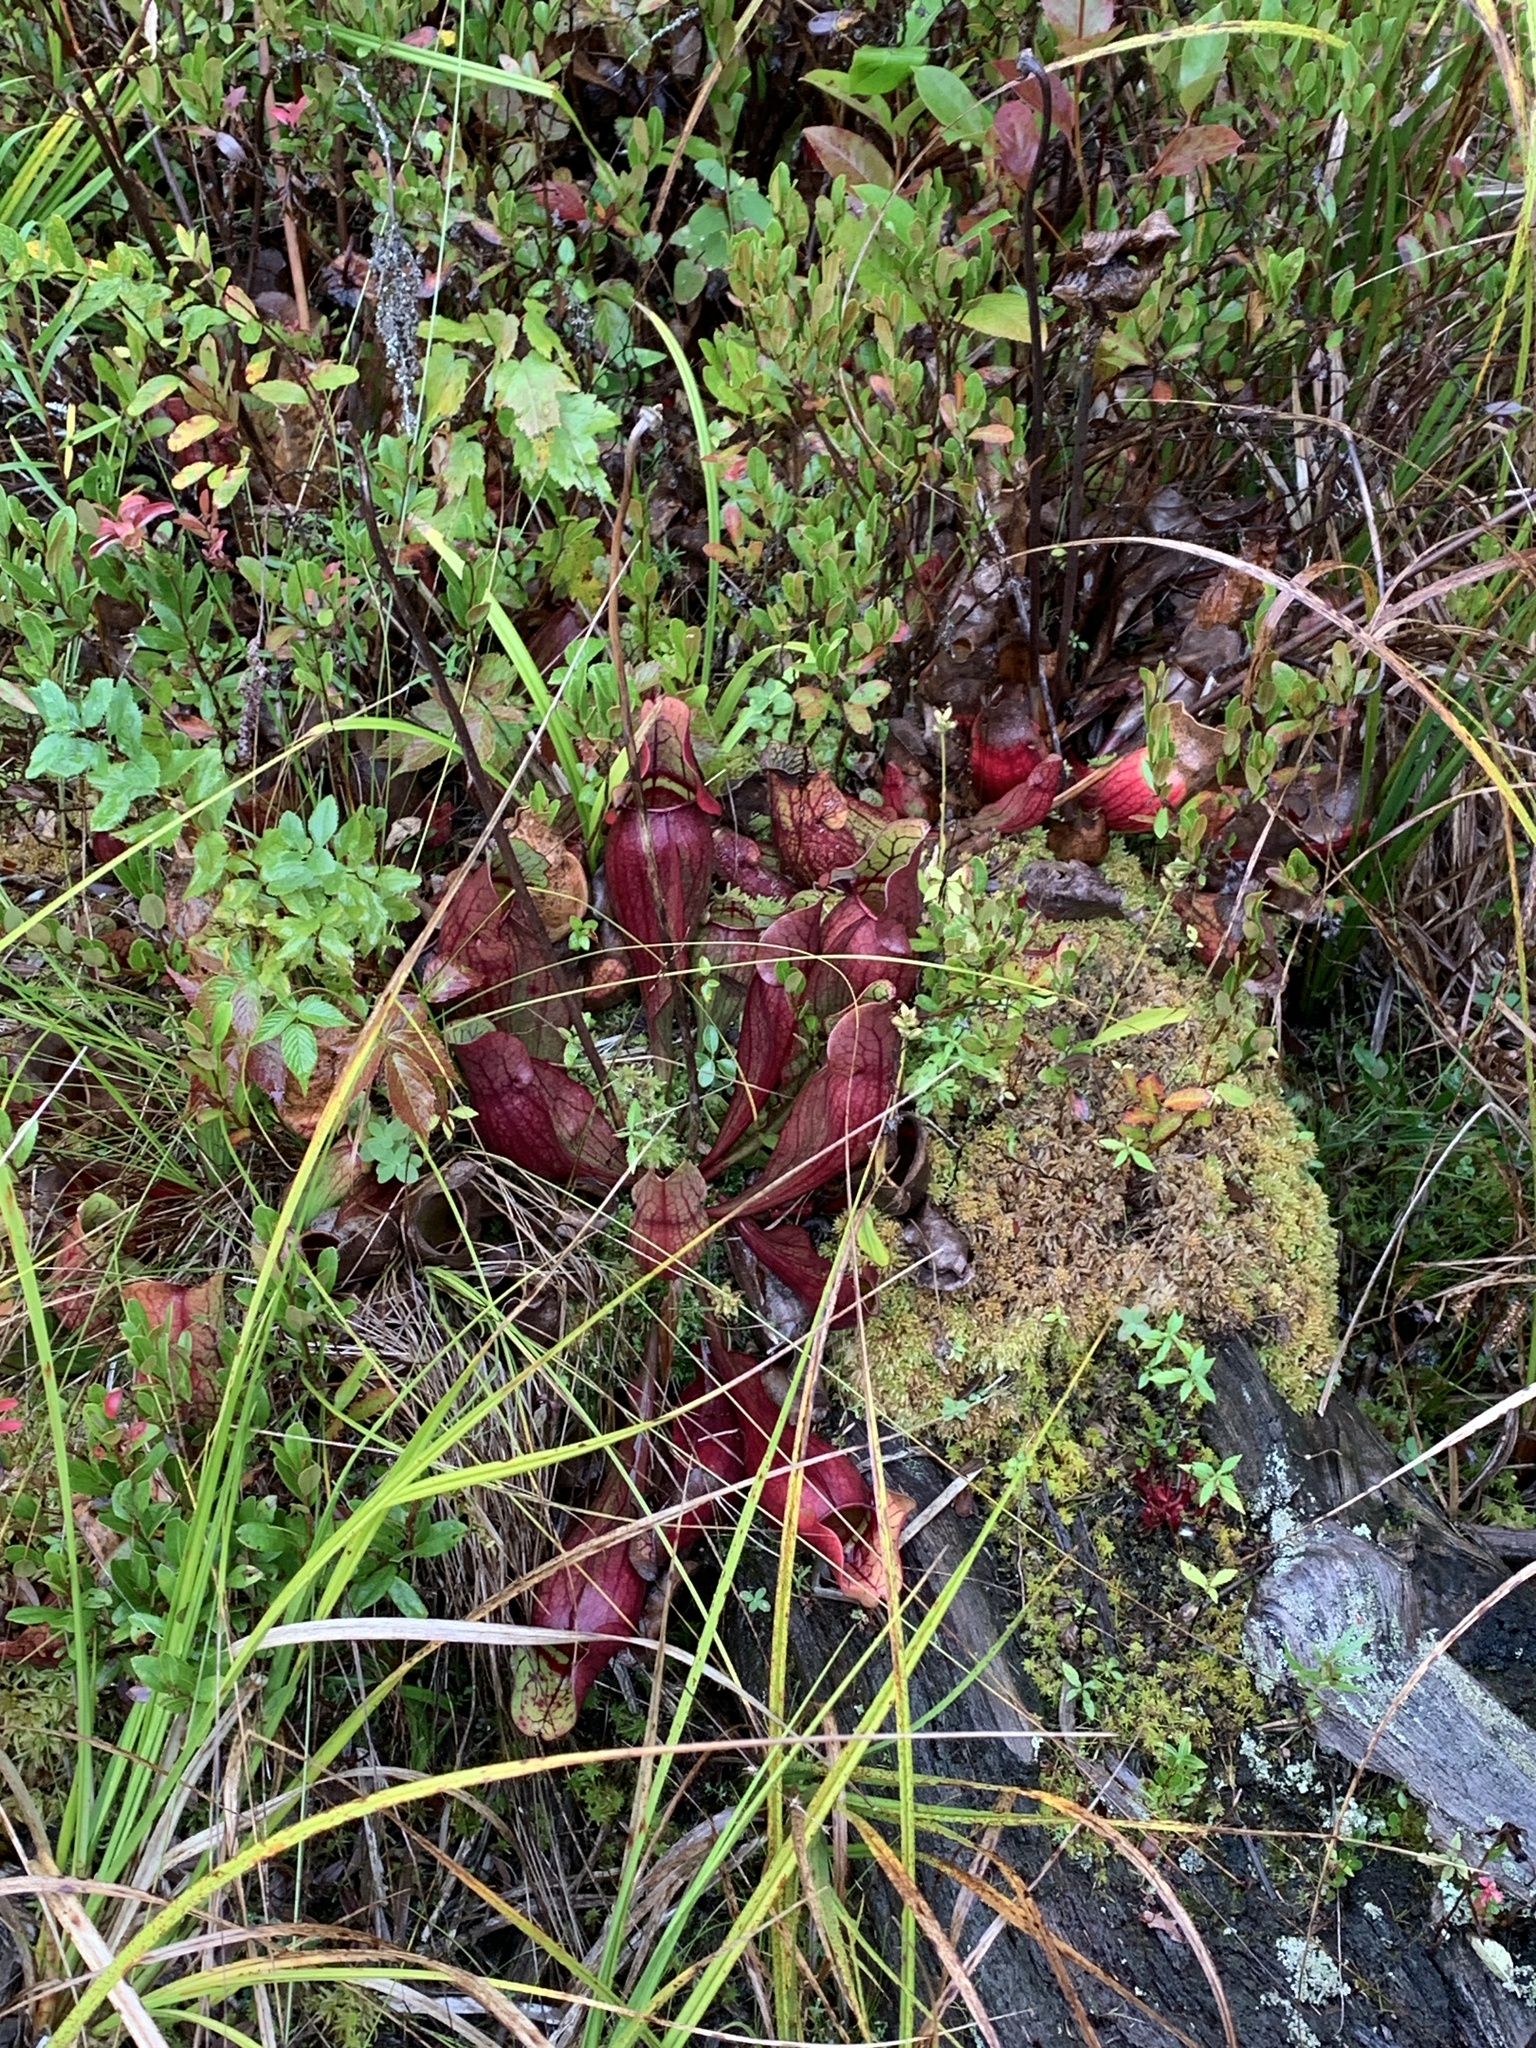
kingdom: Plantae
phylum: Tracheophyta
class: Magnoliopsida
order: Ericales
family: Sarraceniaceae
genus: Sarracenia
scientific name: Sarracenia purpurea
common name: Pitcherplant
